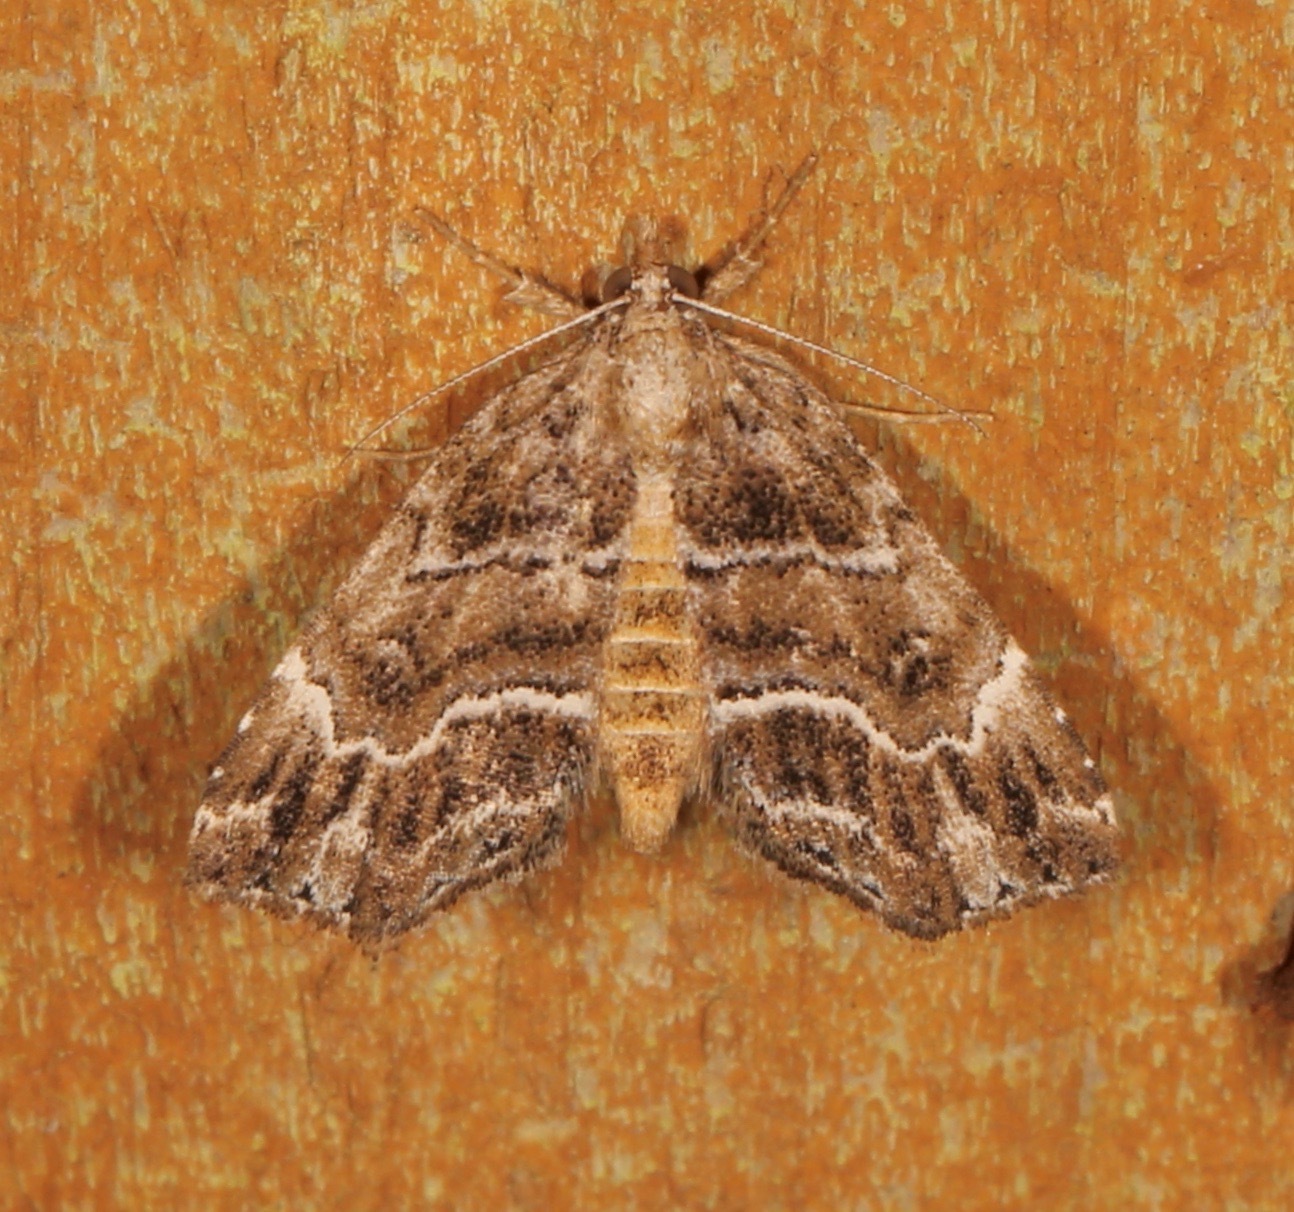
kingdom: Animalia
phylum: Arthropoda
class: Insecta
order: Lepidoptera
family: Erebidae
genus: Cutina
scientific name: Cutina arcuata
